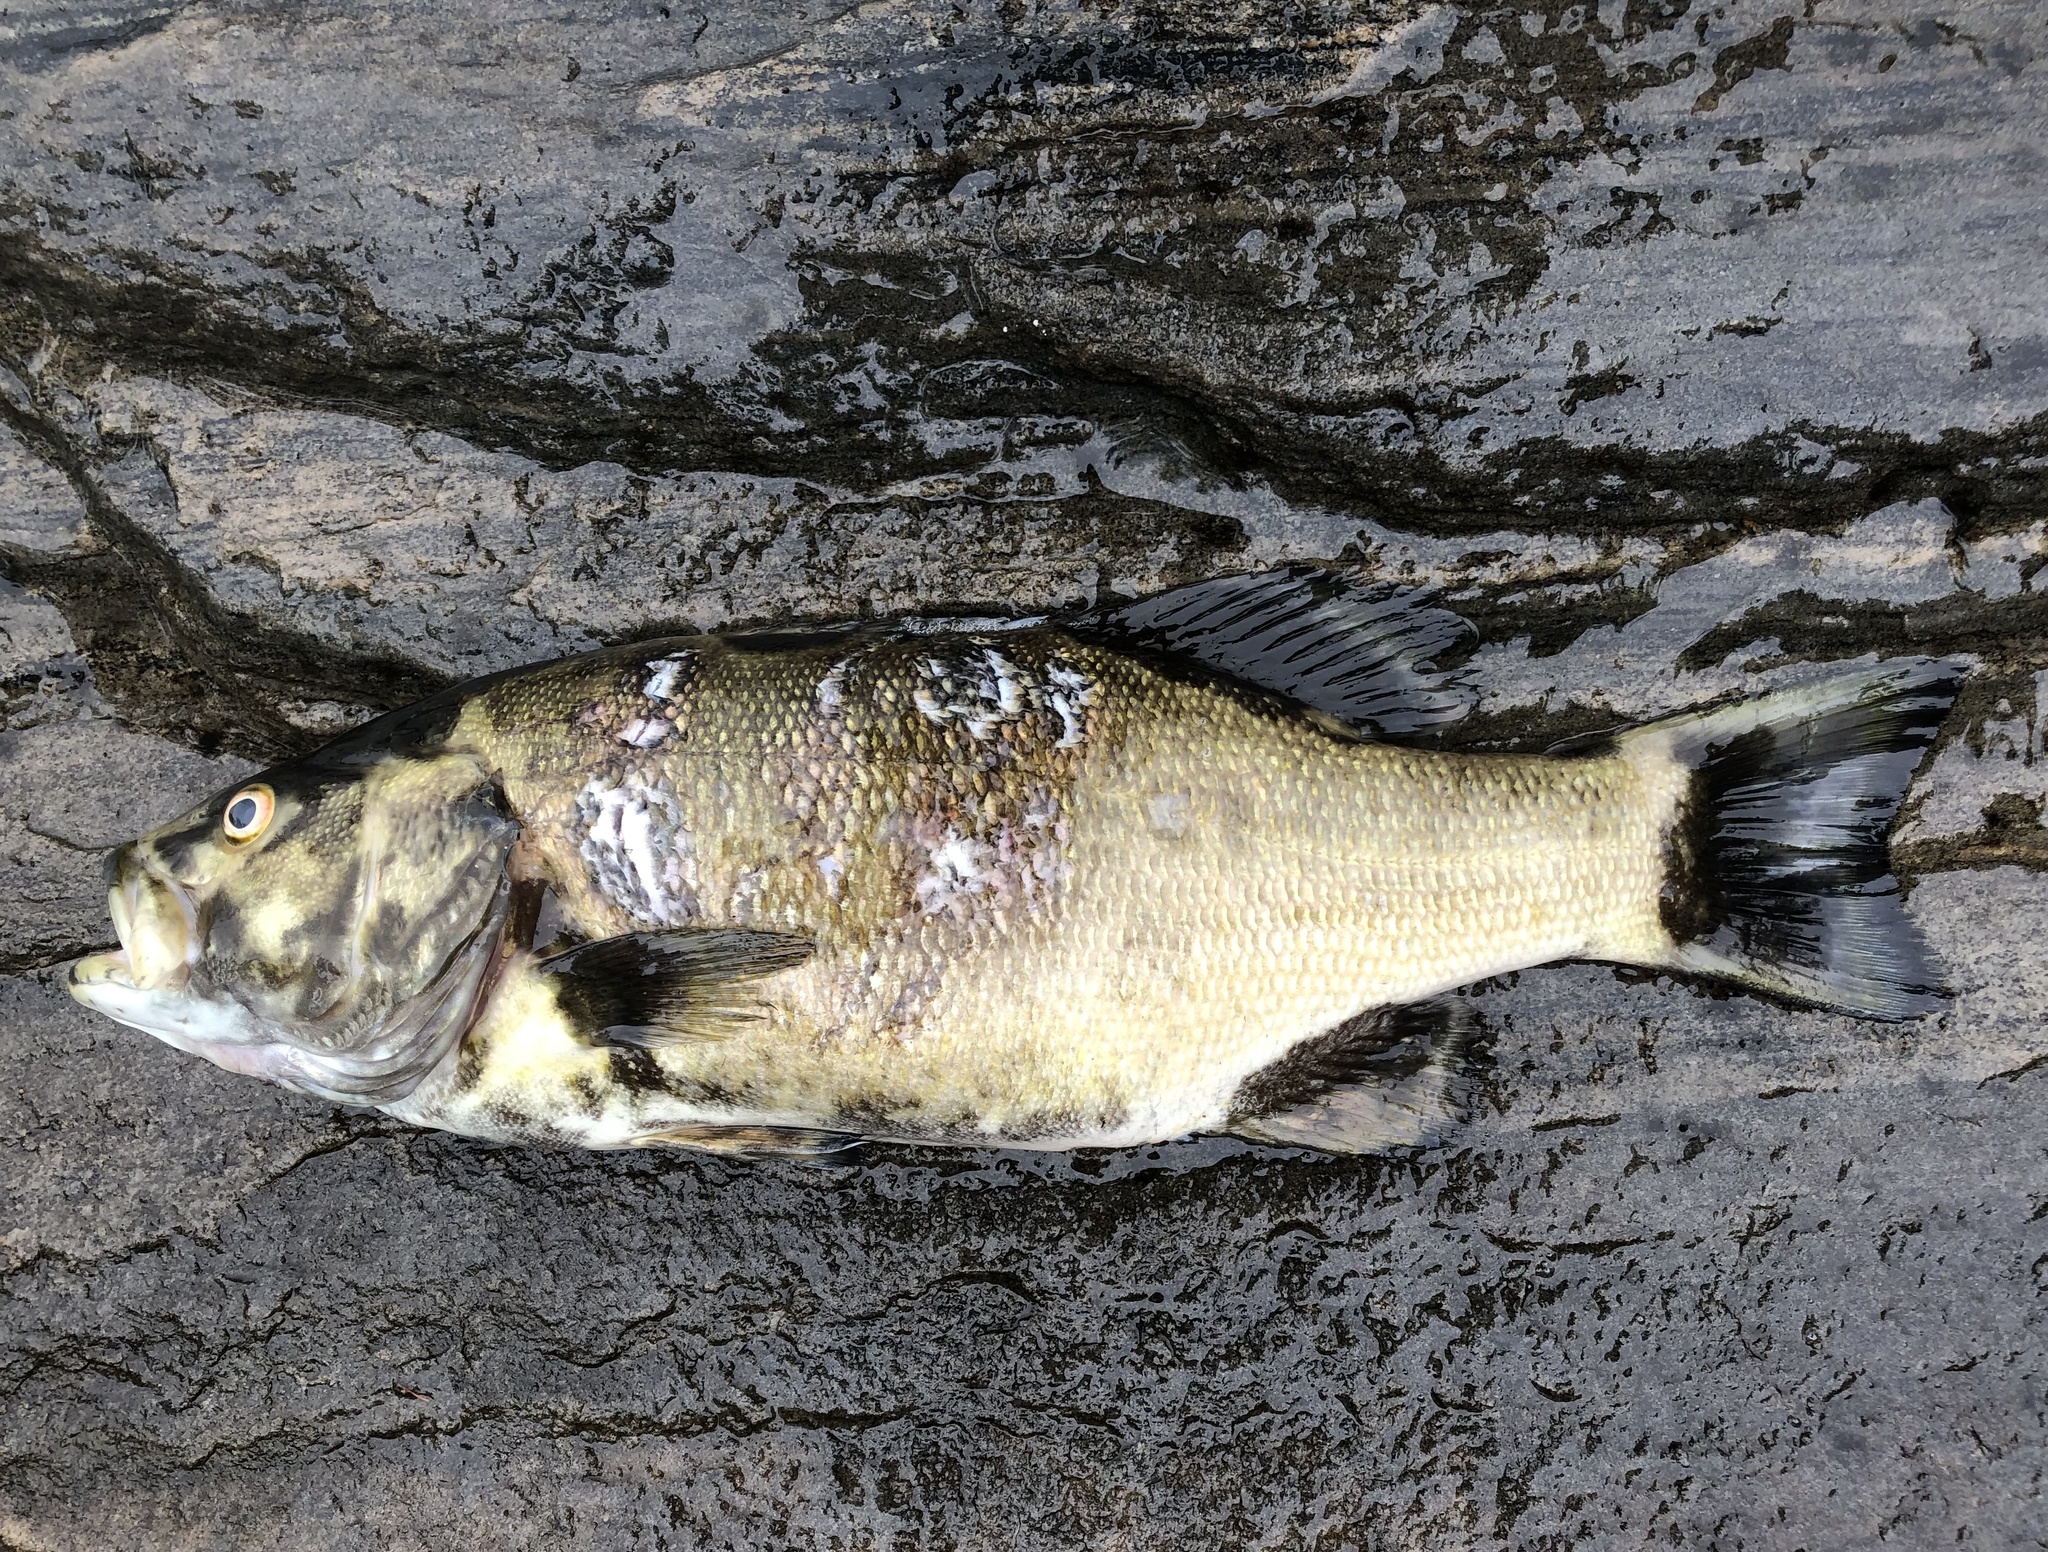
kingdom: Animalia
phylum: Chordata
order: Perciformes
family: Centrarchidae
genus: Micropterus
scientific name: Micropterus dolomieu
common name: Smallmouth bass
